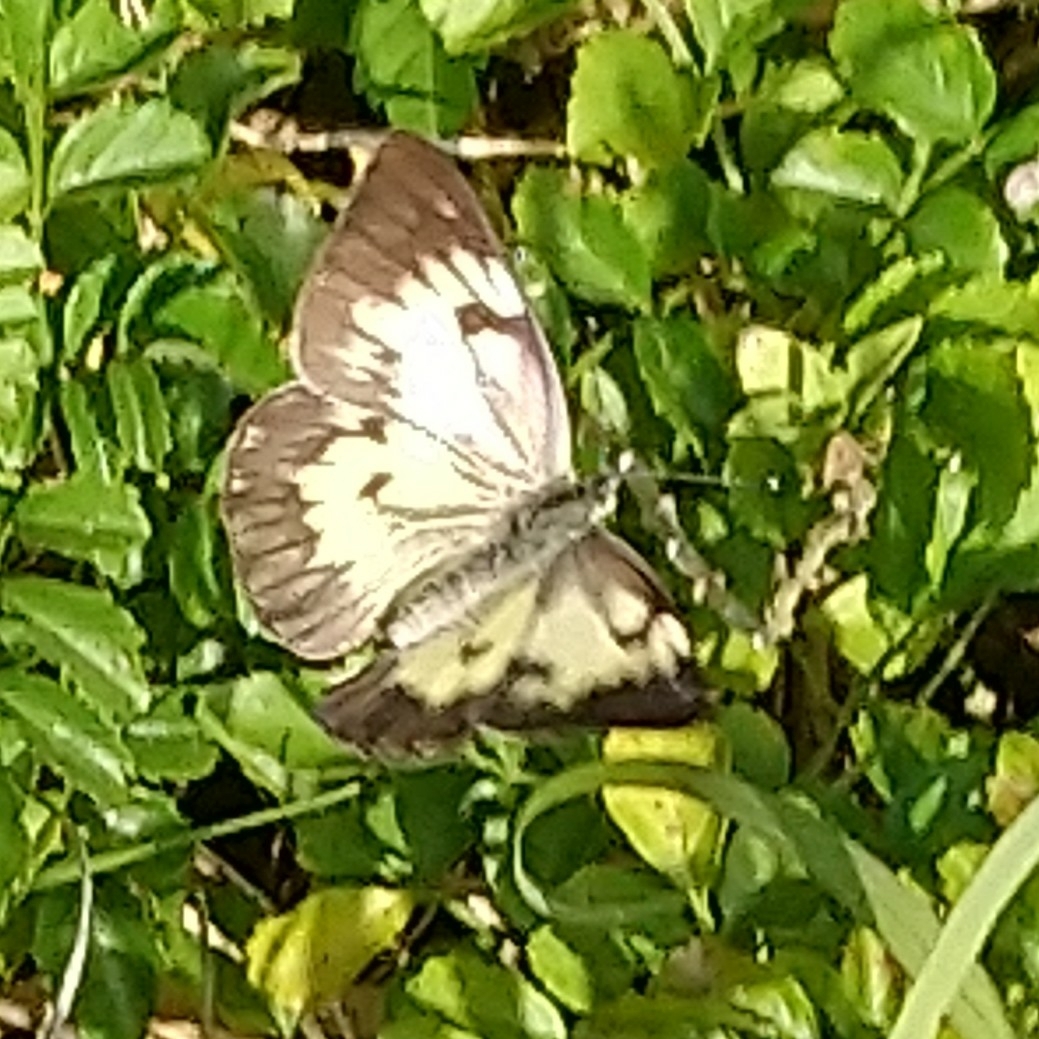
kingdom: Animalia
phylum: Arthropoda
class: Insecta
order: Lepidoptera
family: Pieridae
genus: Belenois
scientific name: Belenois gidica
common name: Pointed caper white
